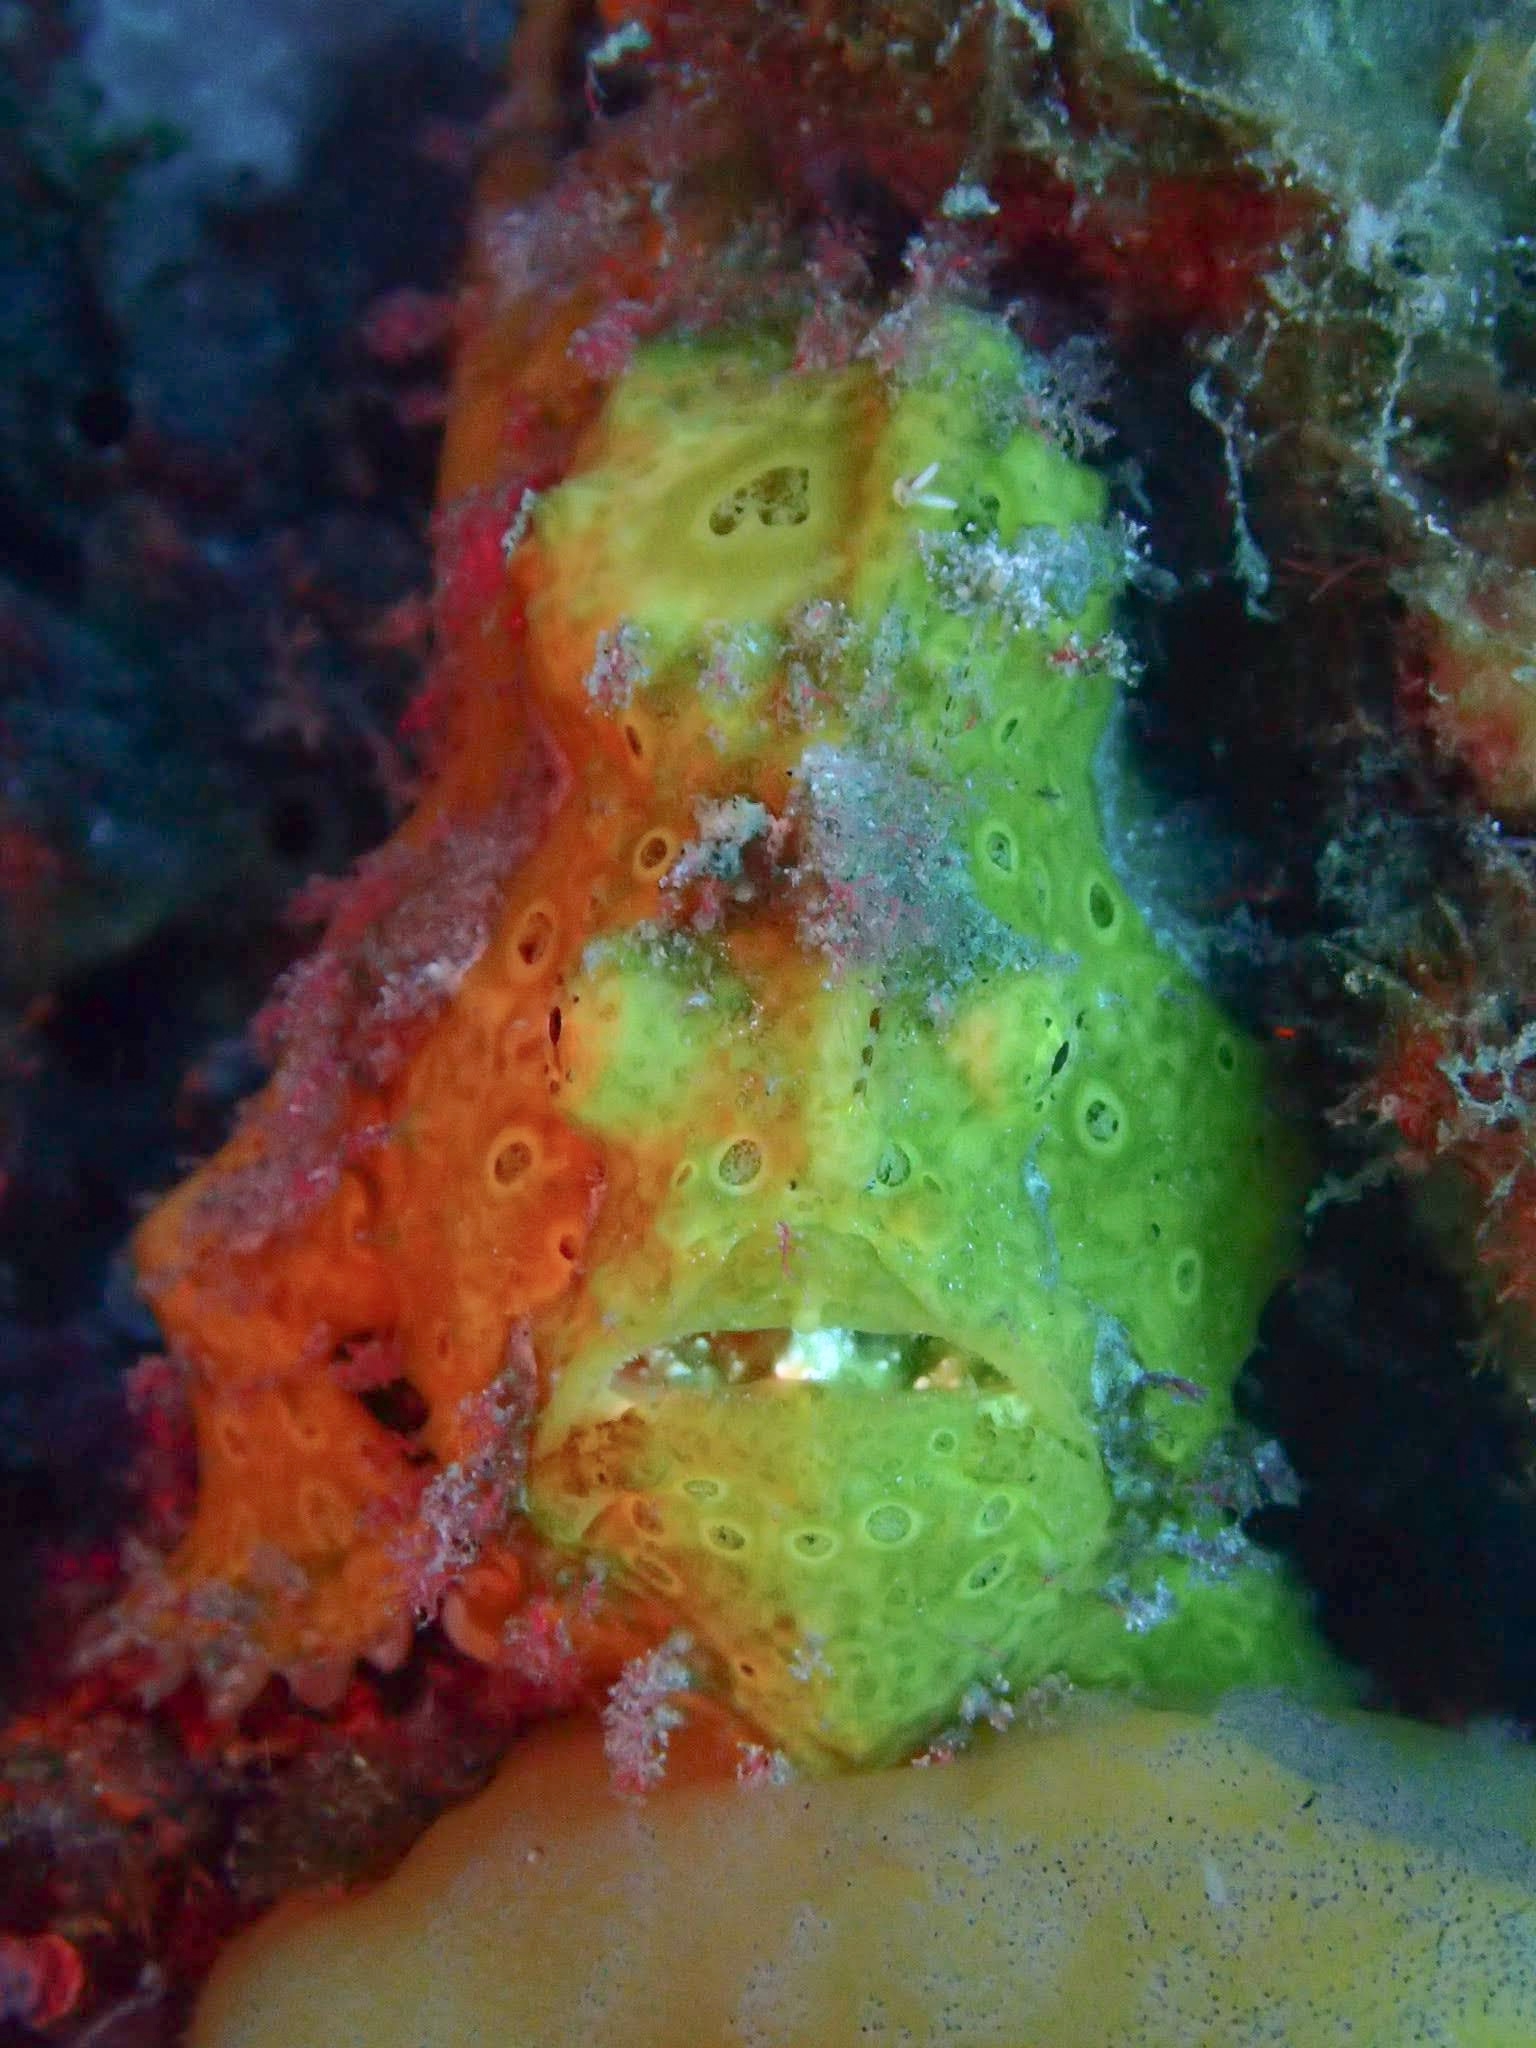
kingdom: Animalia
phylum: Chordata
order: Lophiiformes
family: Antennariidae
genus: Antennarius
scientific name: Antennarius pictus
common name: Painted frogfish
